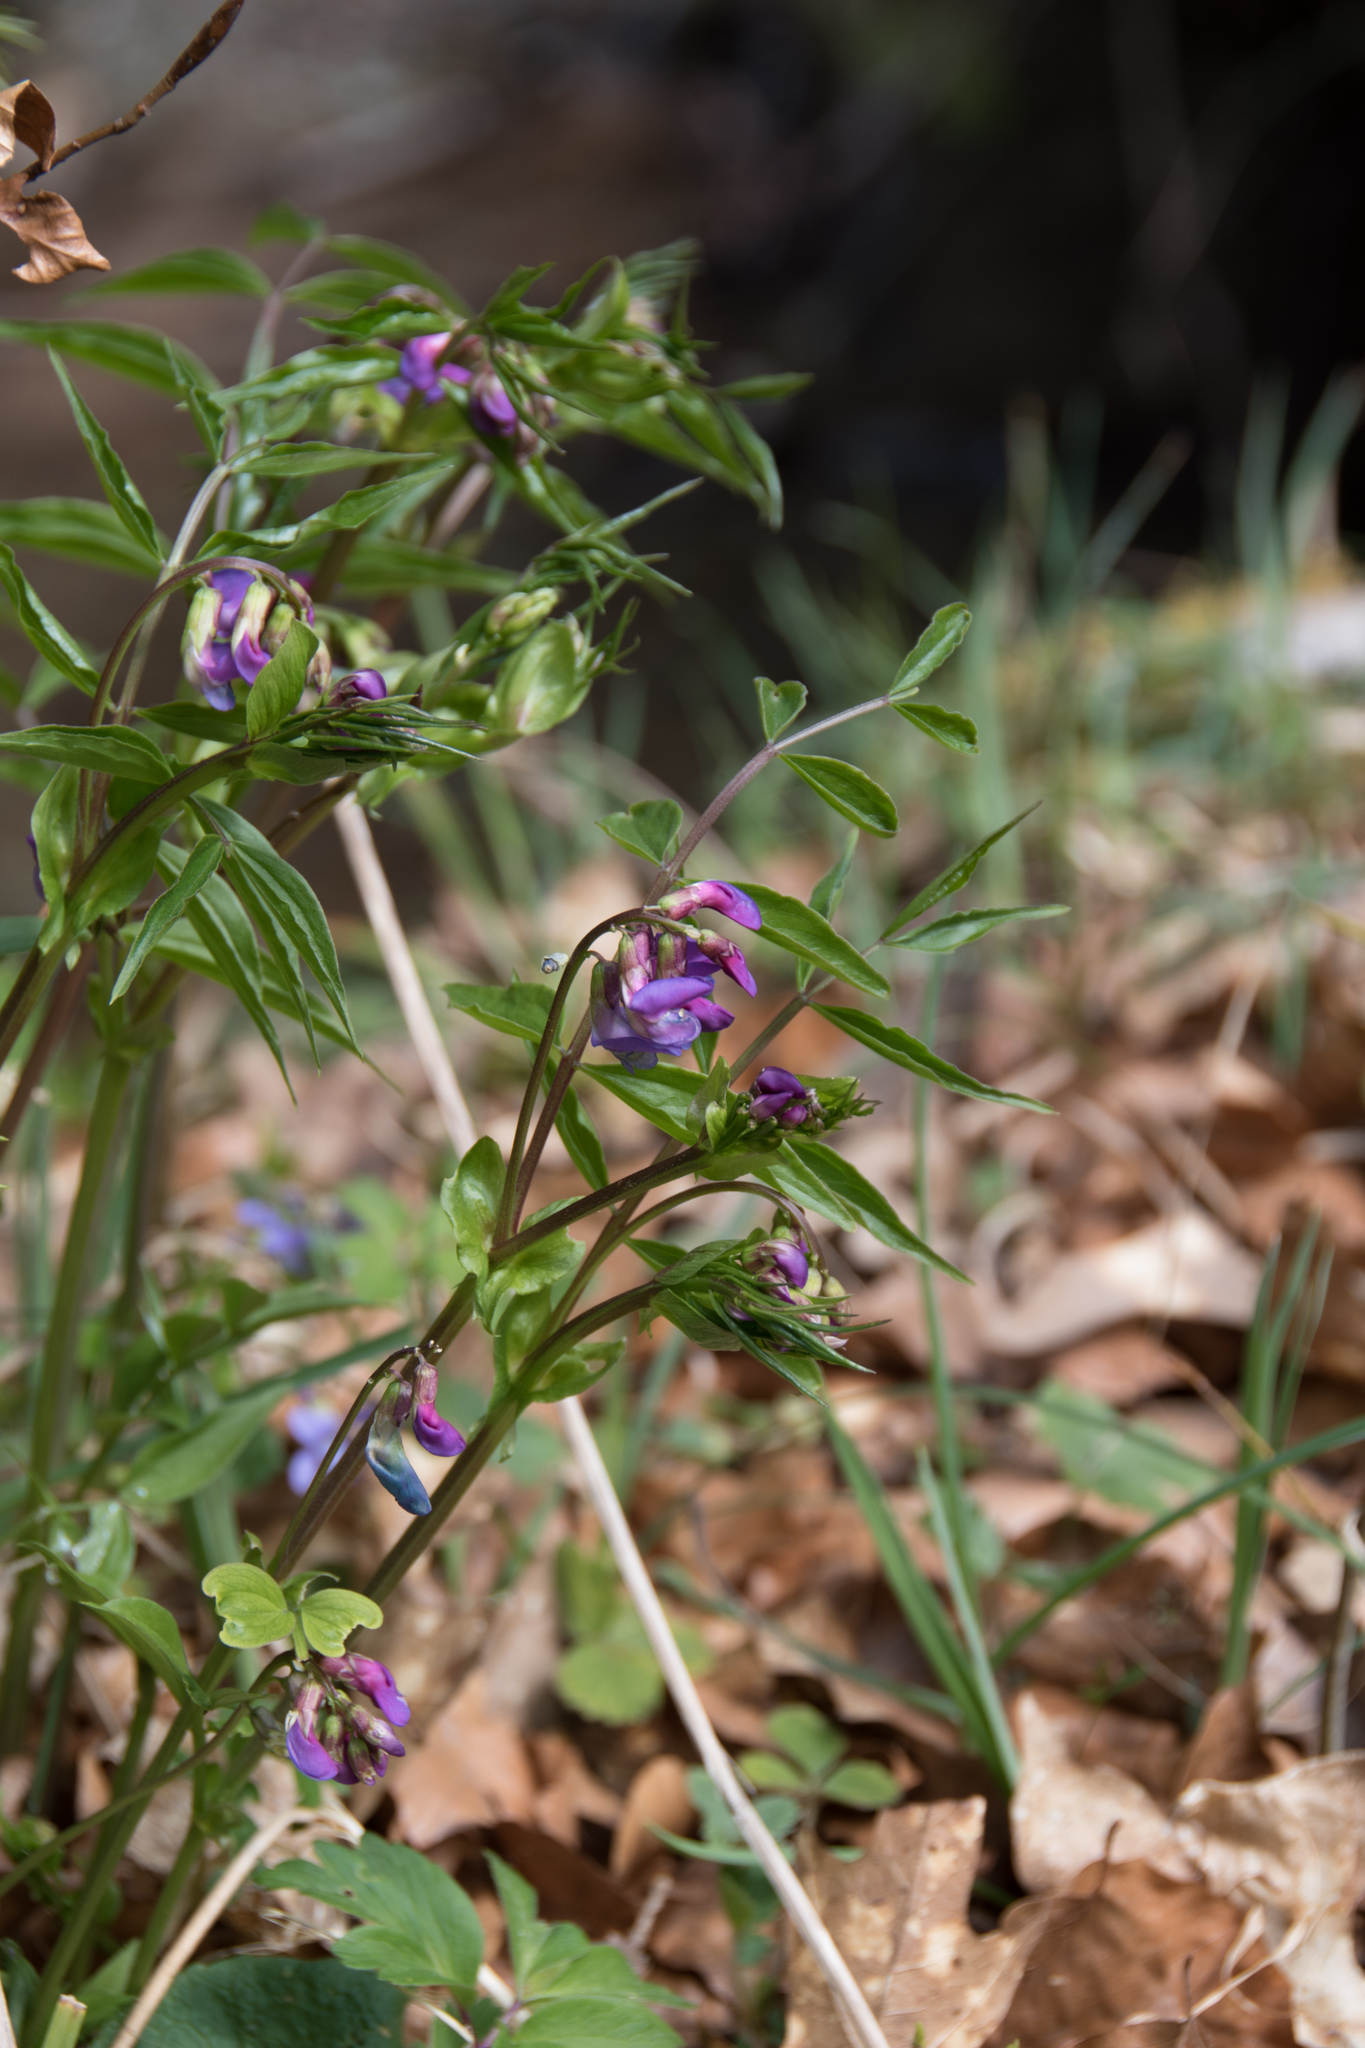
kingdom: Plantae
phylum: Tracheophyta
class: Magnoliopsida
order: Fabales
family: Fabaceae
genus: Lathyrus
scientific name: Lathyrus vernus
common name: Spring pea
